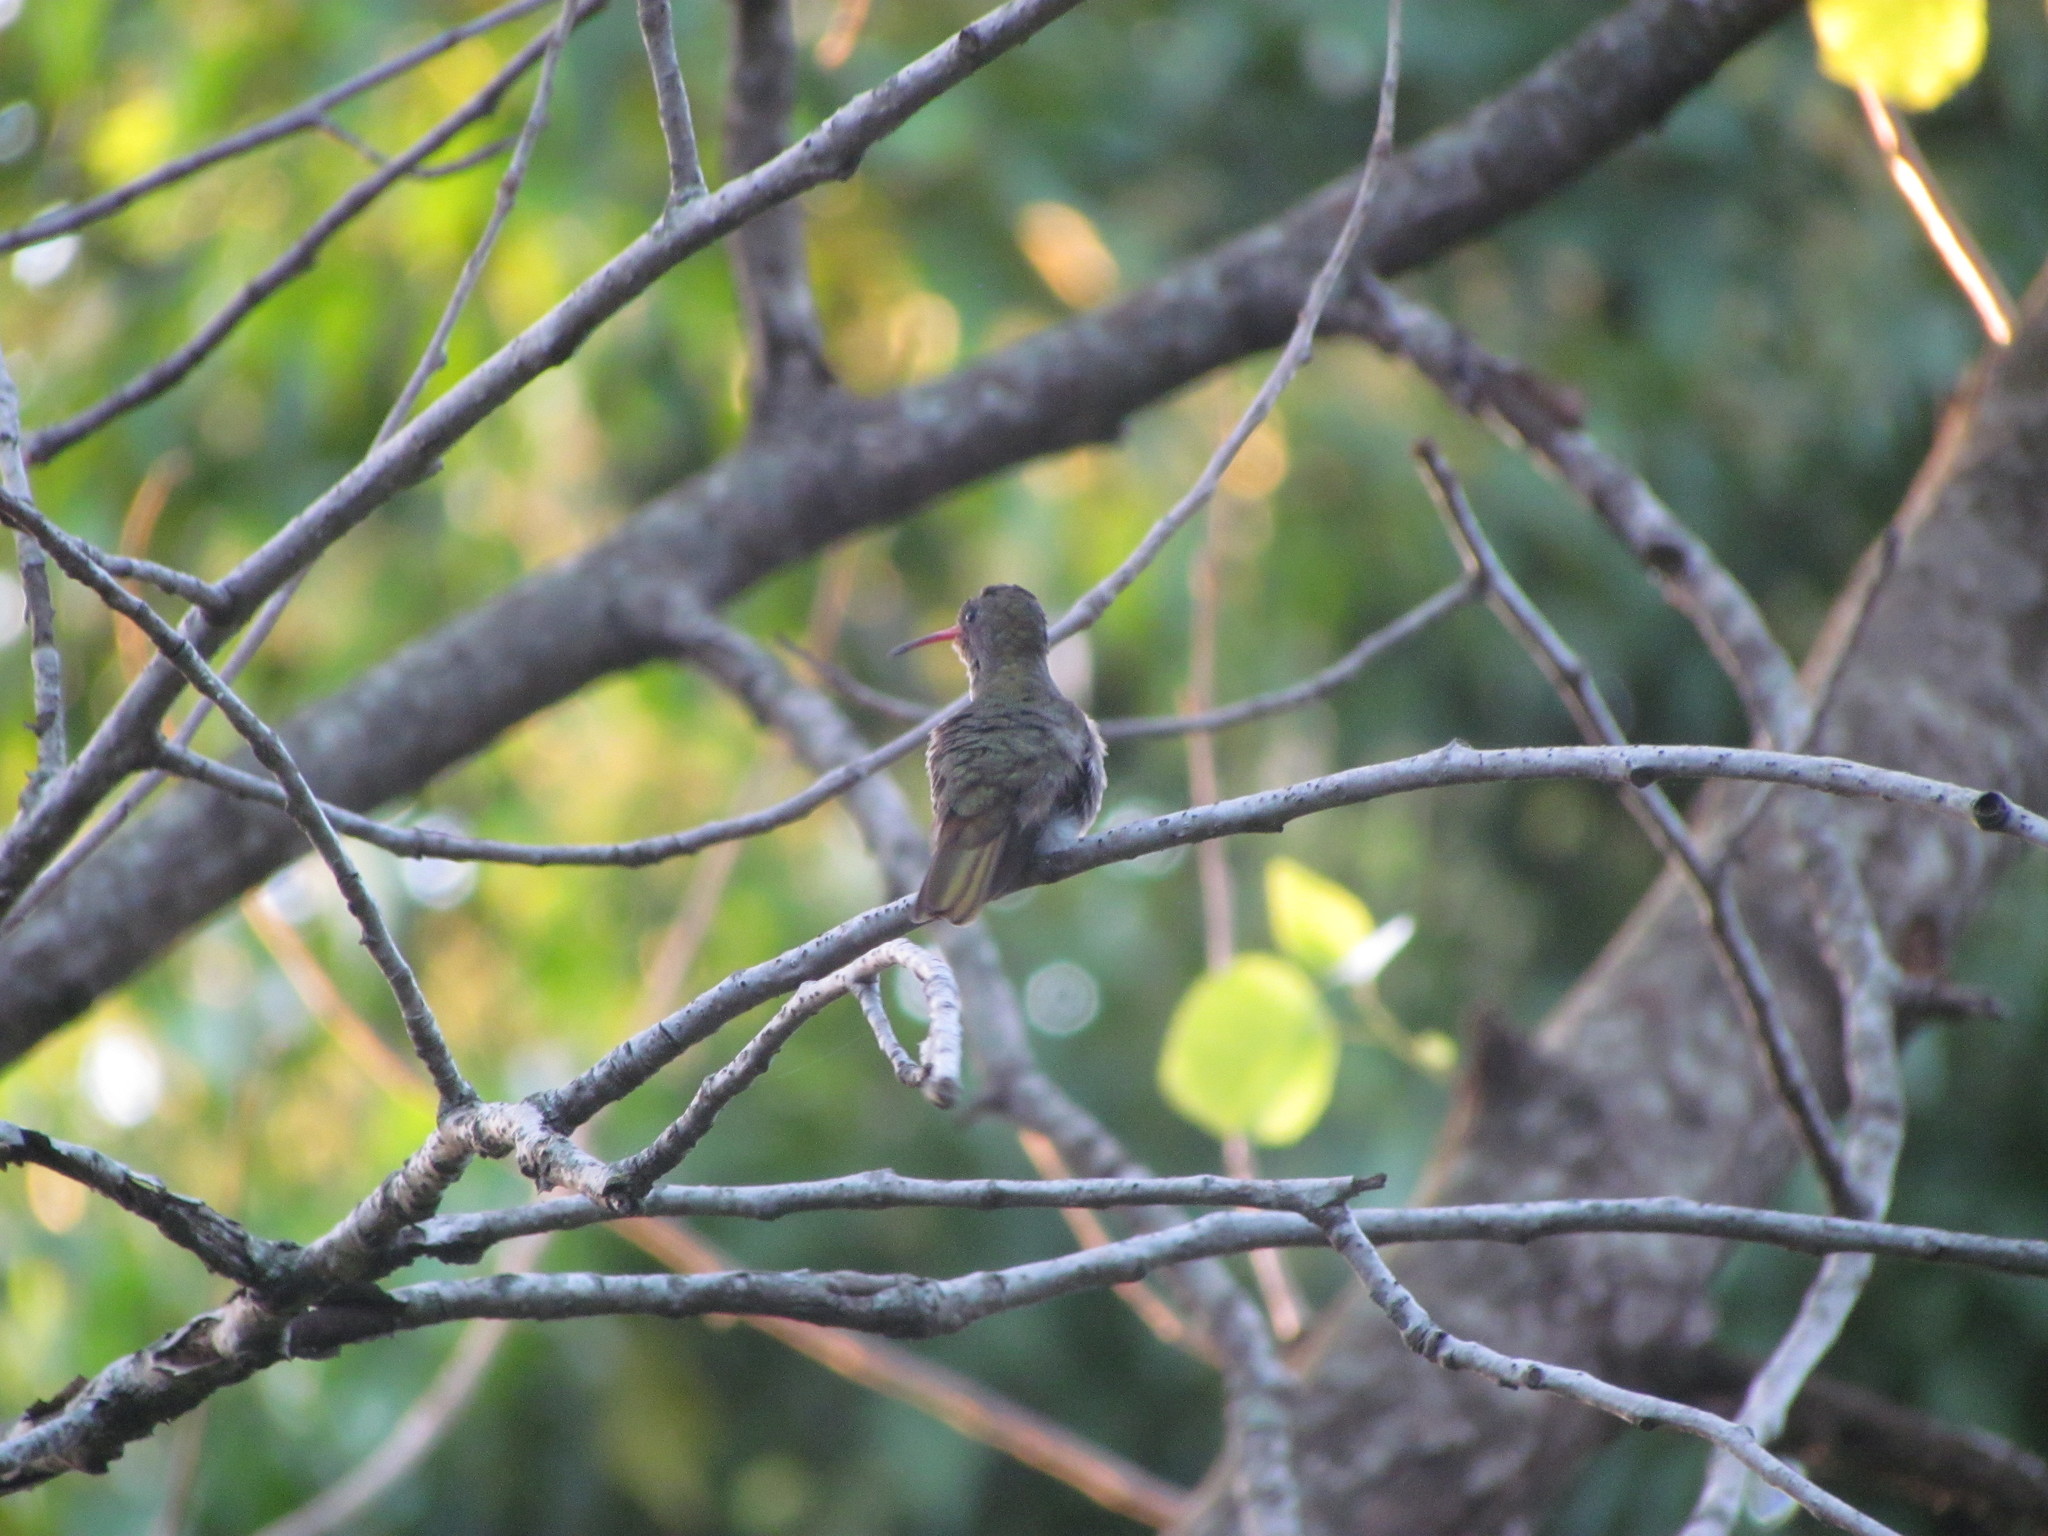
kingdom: Animalia
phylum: Chordata
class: Aves
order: Apodiformes
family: Trochilidae
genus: Hylocharis
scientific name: Hylocharis chrysura
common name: Gilded sapphire
